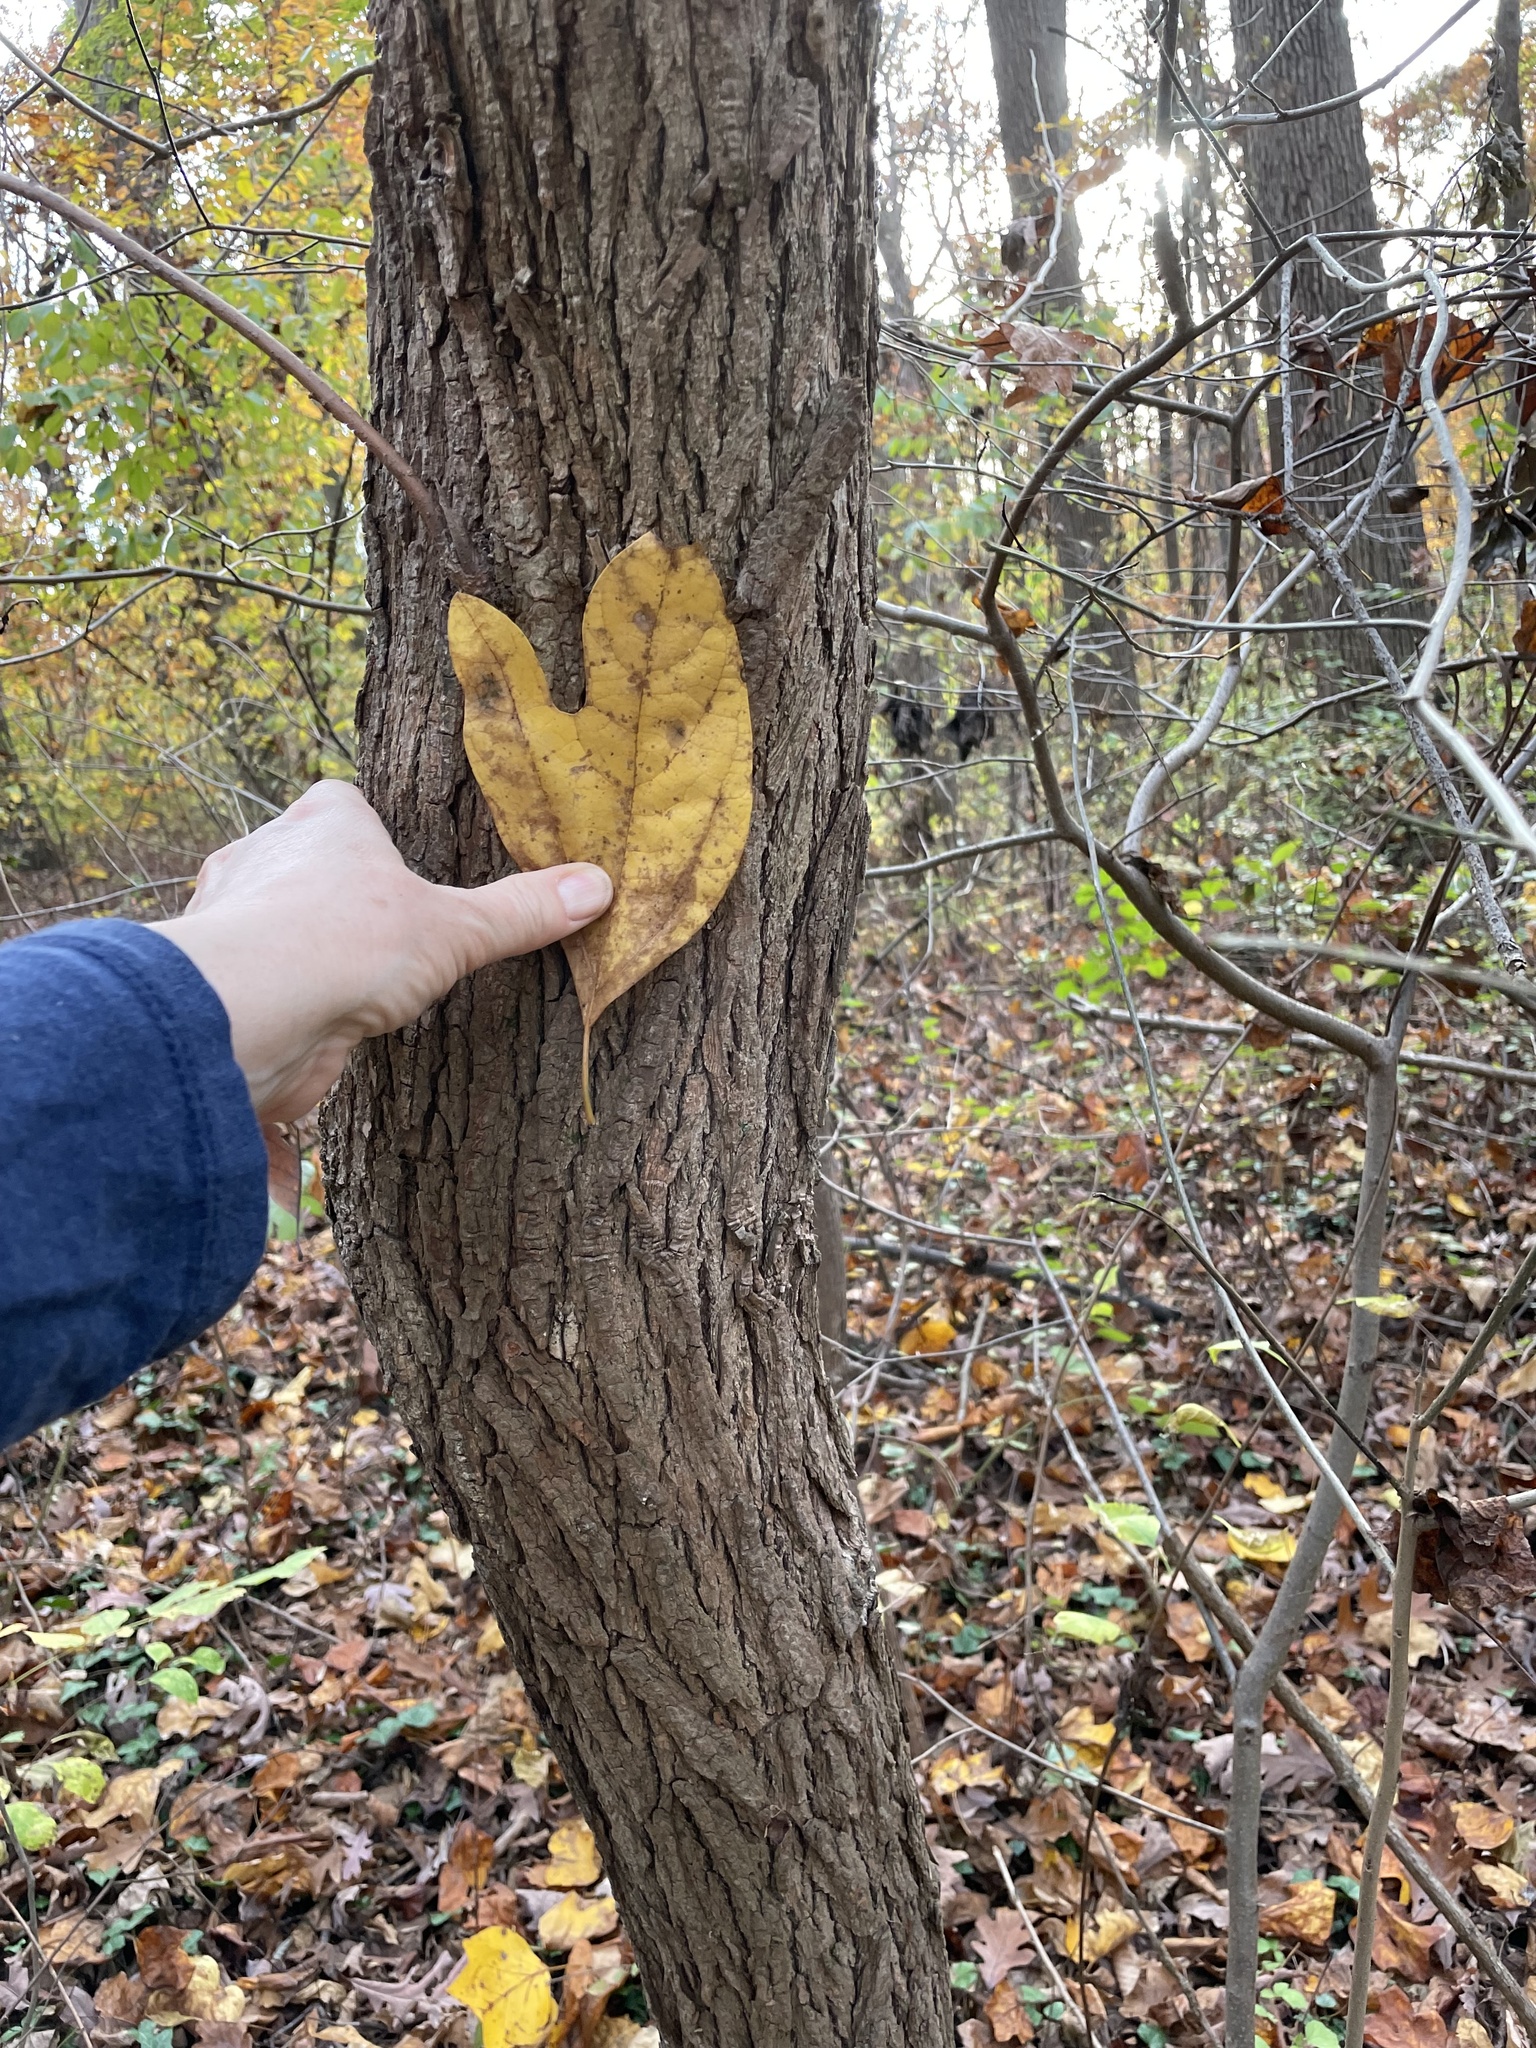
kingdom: Plantae
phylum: Tracheophyta
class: Magnoliopsida
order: Laurales
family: Lauraceae
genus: Sassafras
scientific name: Sassafras albidum
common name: Sassafras
